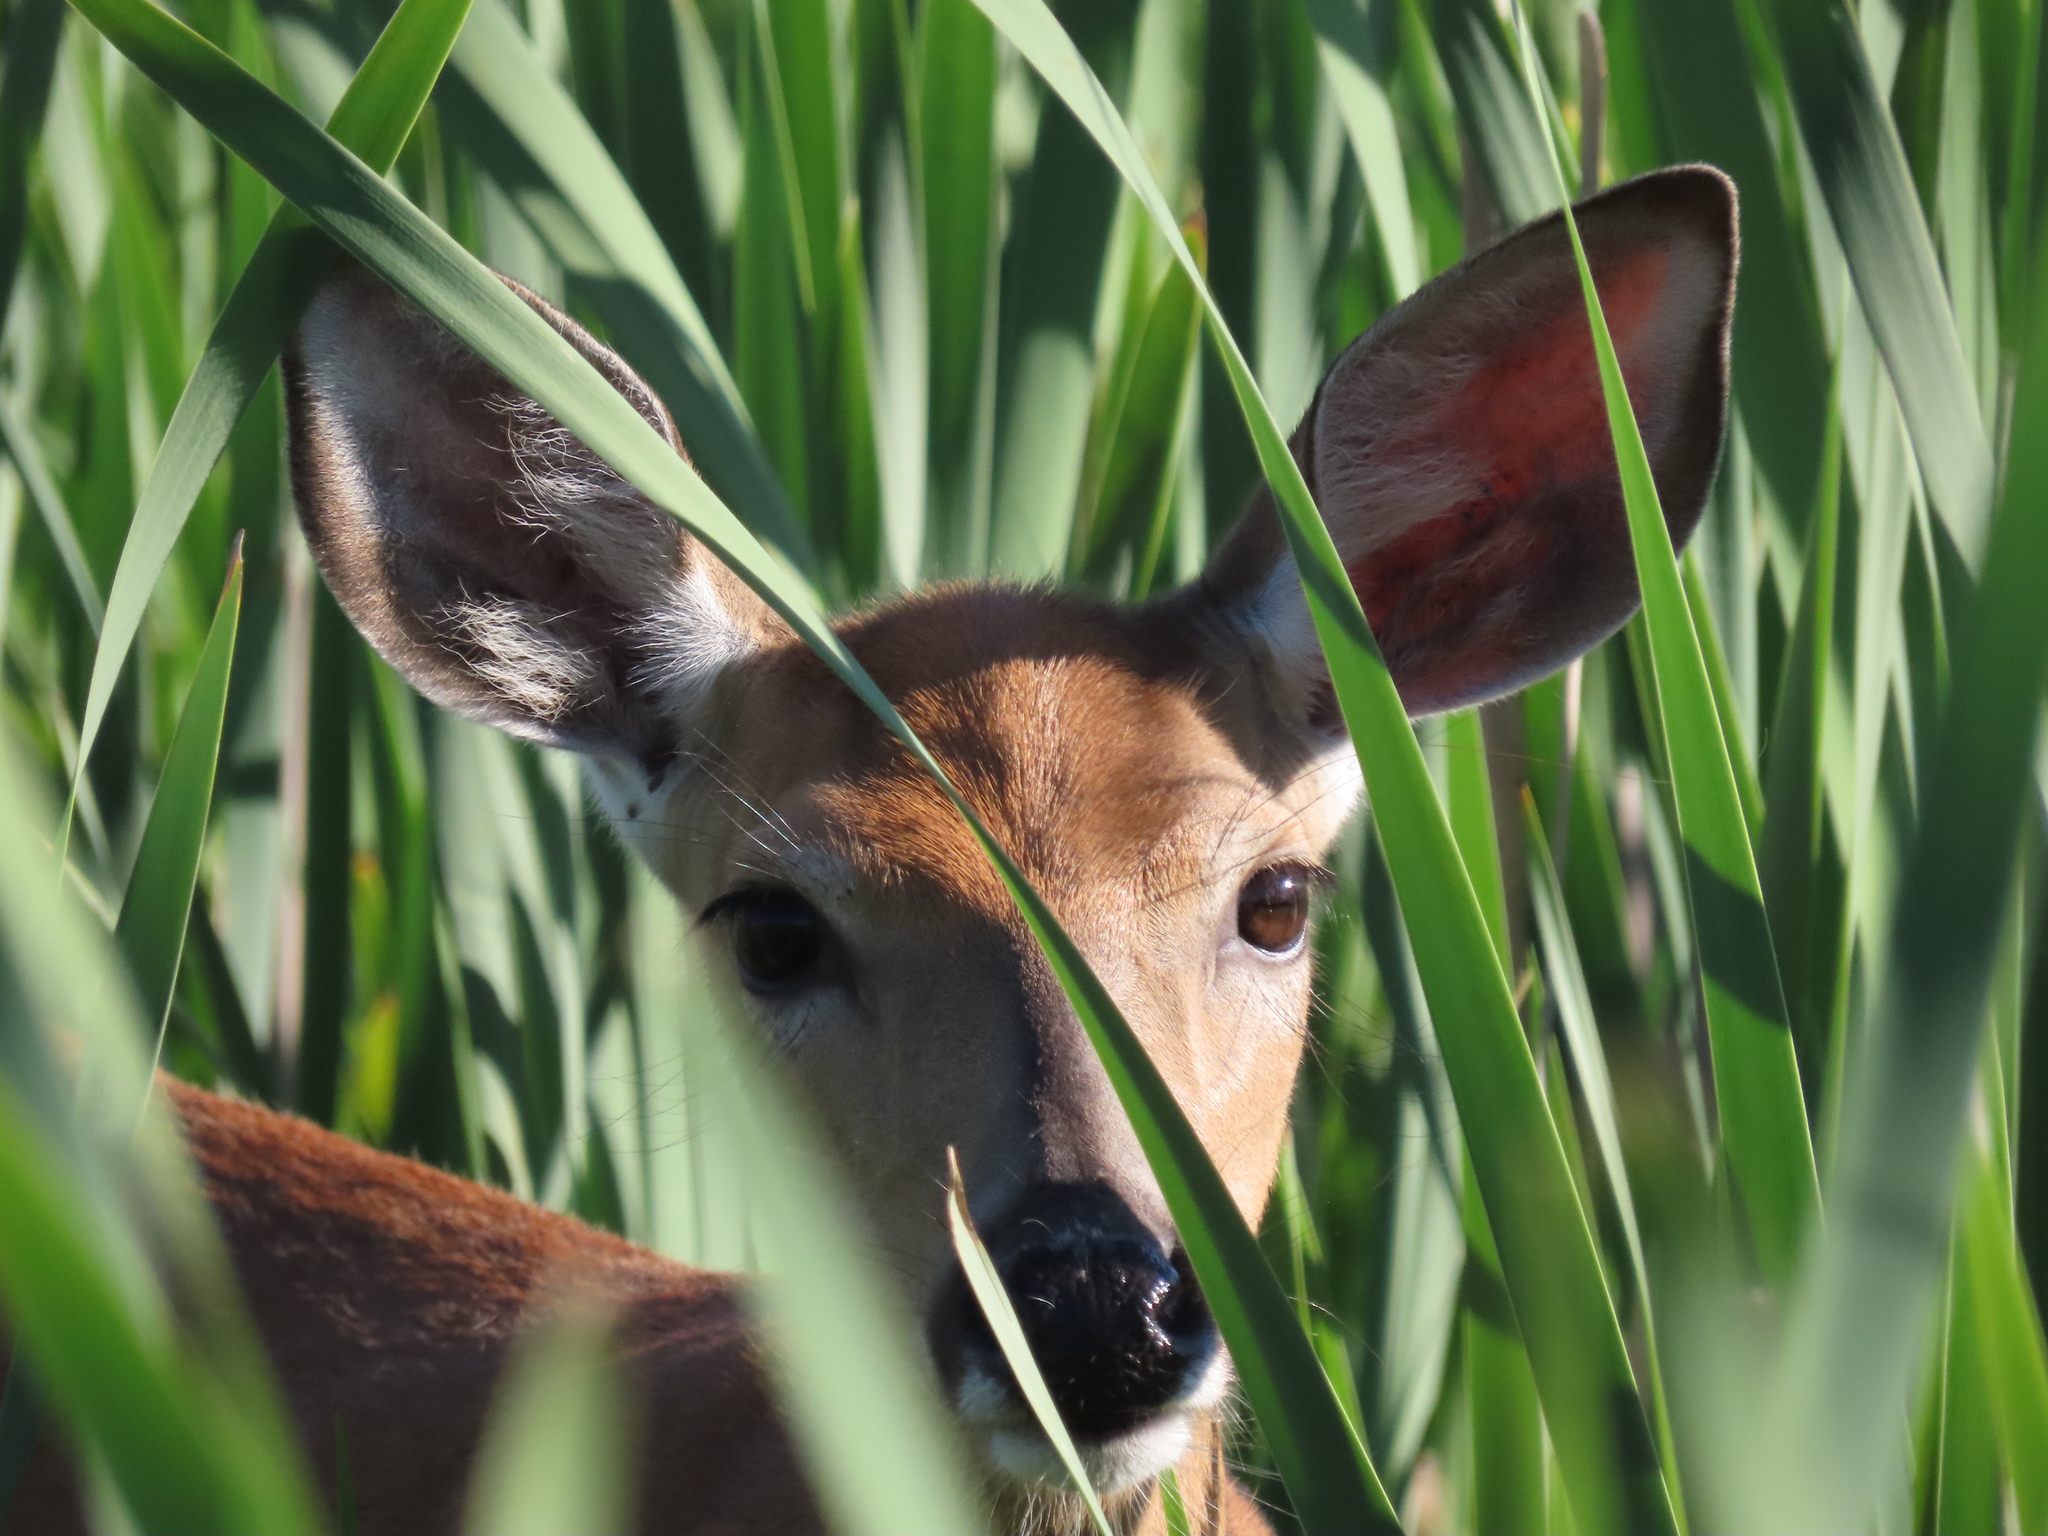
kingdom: Animalia
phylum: Chordata
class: Mammalia
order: Artiodactyla
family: Cervidae
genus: Odocoileus
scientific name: Odocoileus virginianus
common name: White-tailed deer
